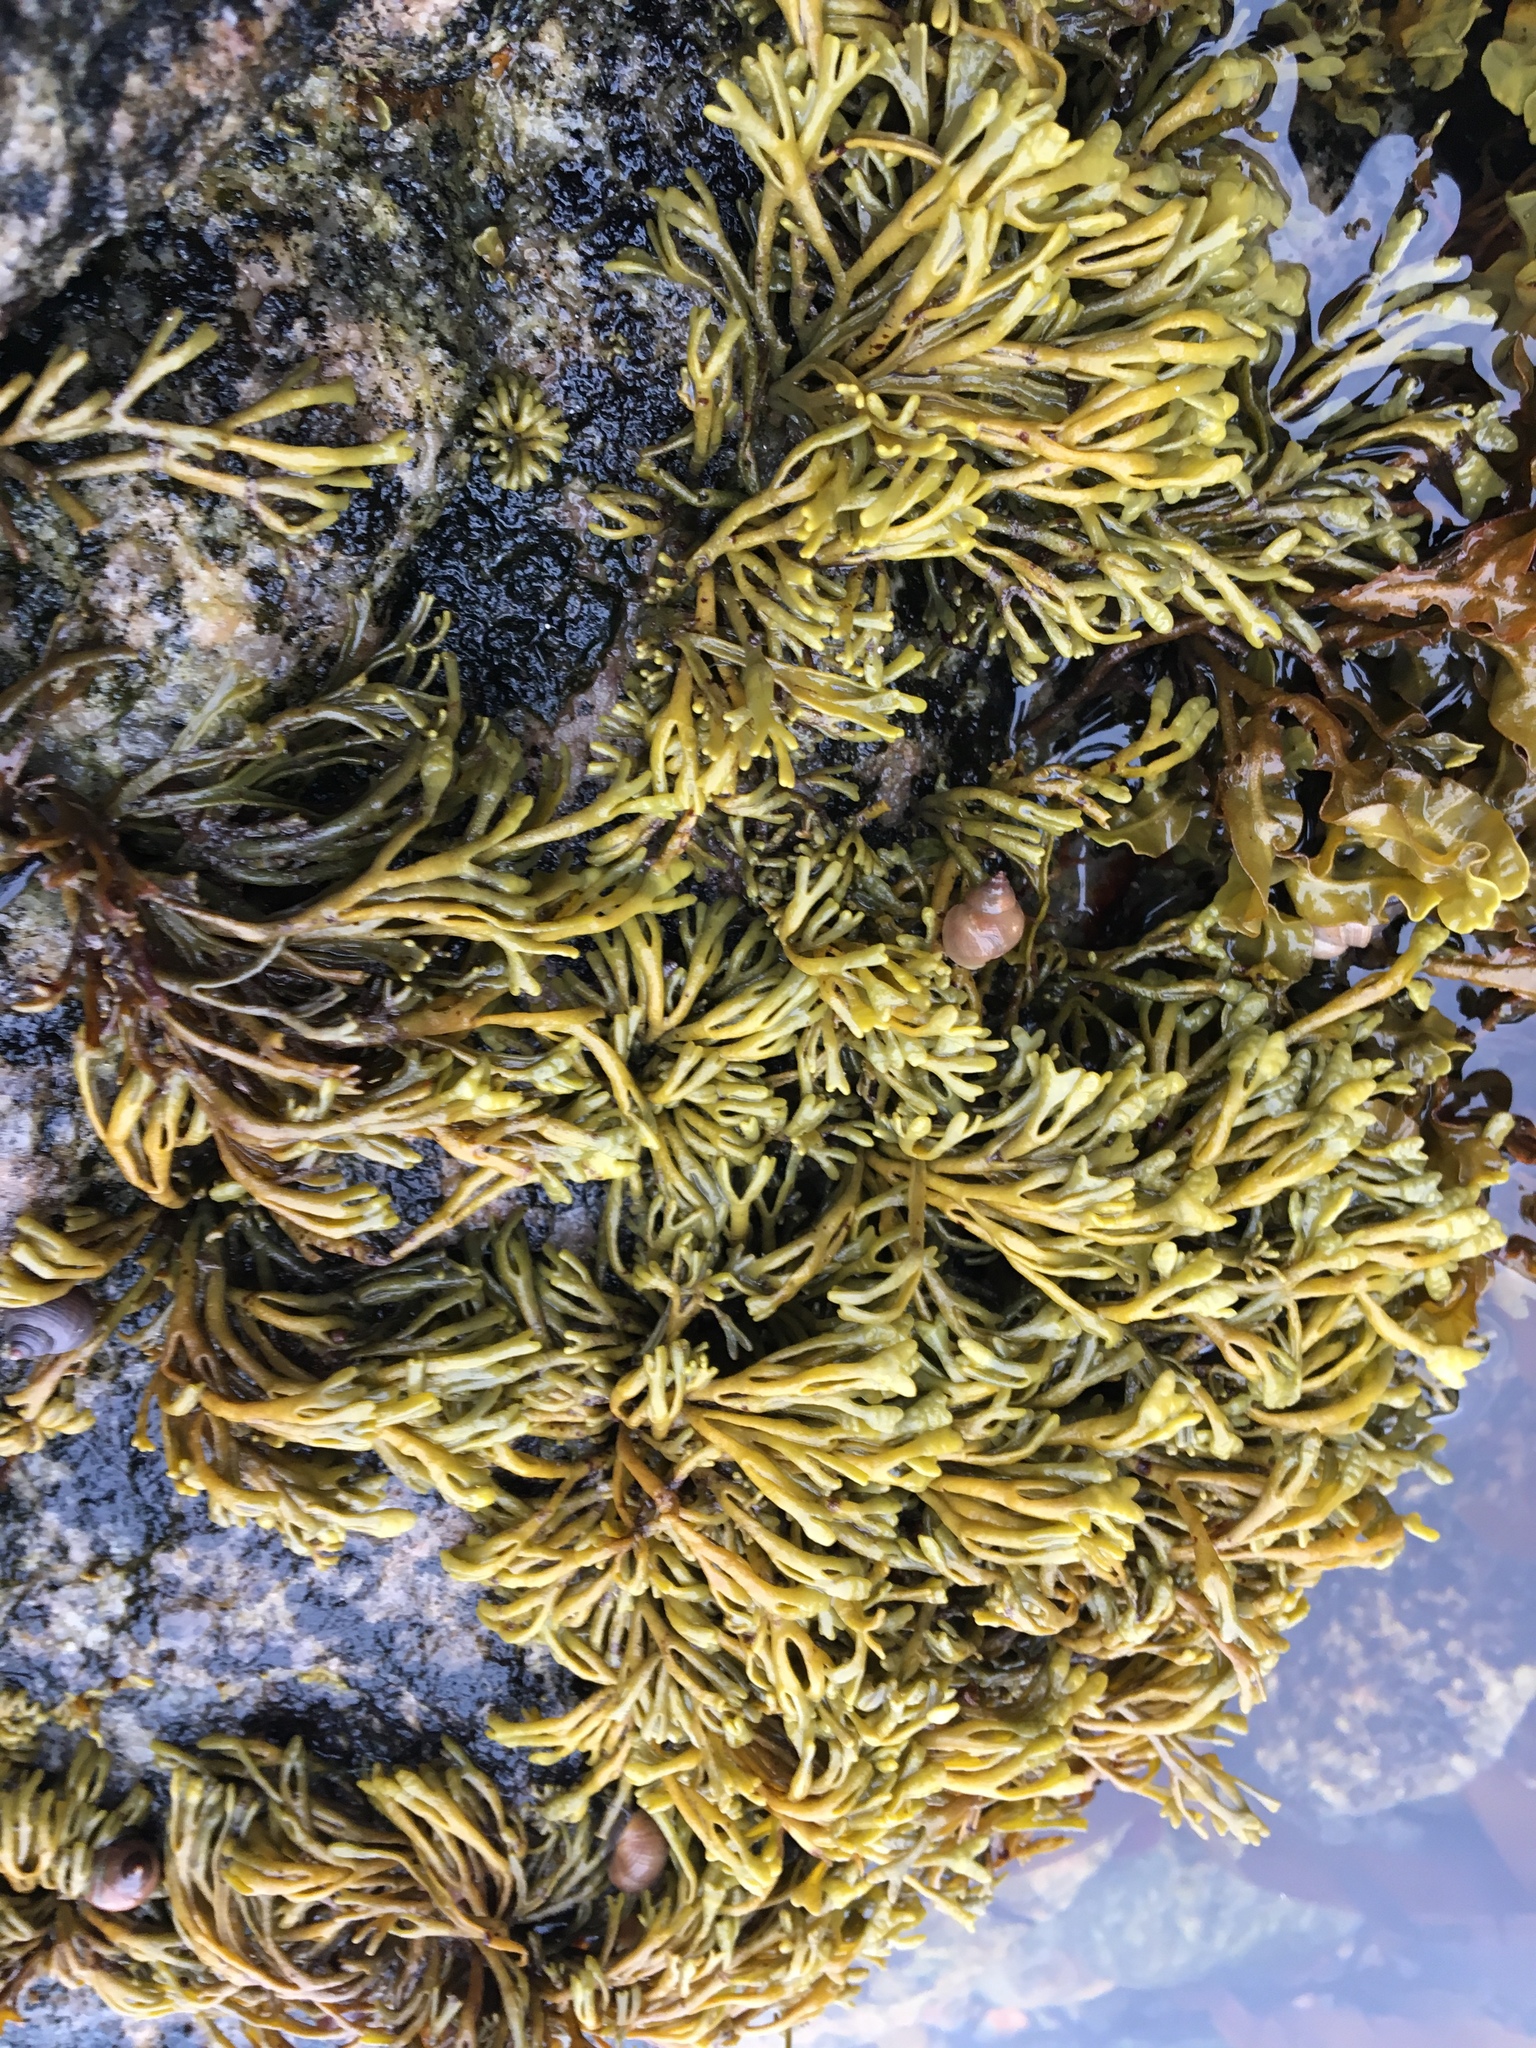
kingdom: Chromista
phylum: Ochrophyta
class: Phaeophyceae
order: Fucales
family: Fucaceae
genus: Pelvetia
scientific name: Pelvetia canaliculata
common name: Channelled wrack
